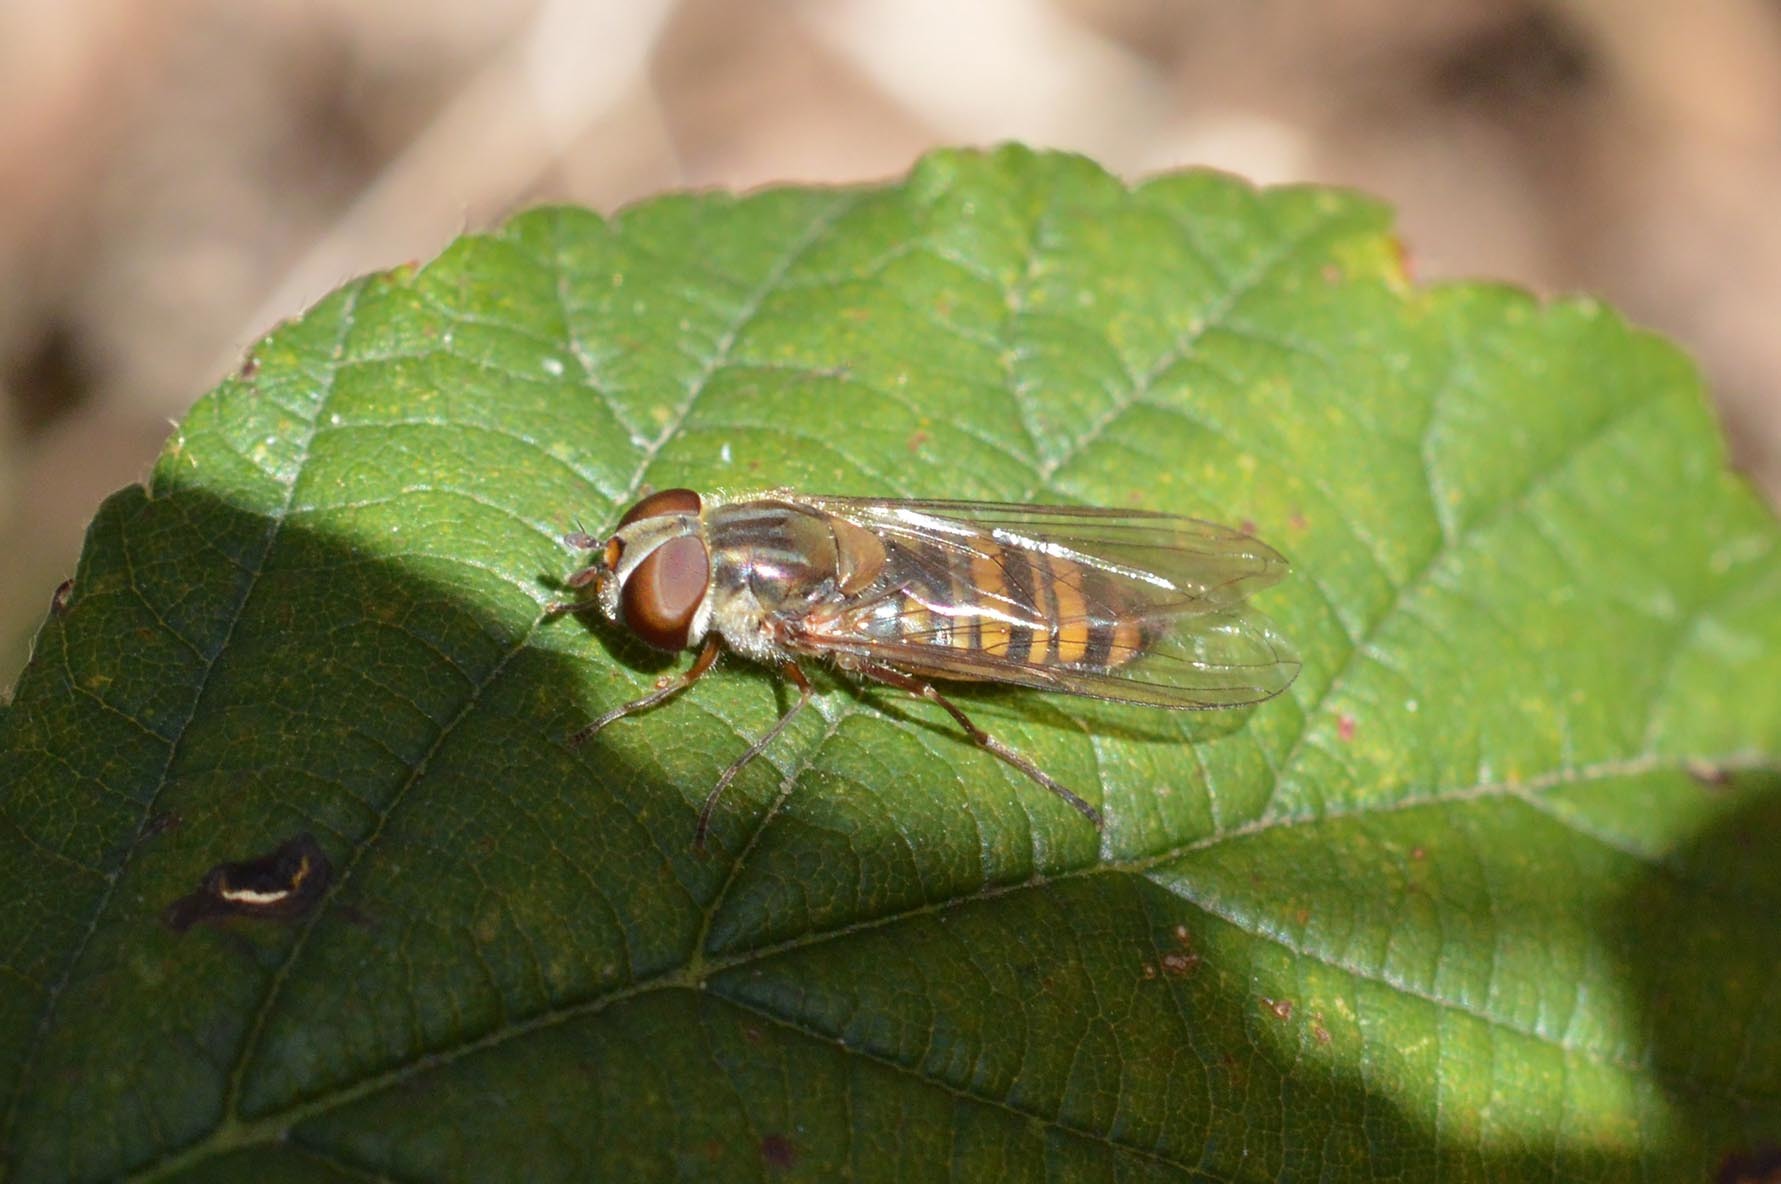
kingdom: Animalia
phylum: Arthropoda
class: Insecta
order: Diptera
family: Syrphidae
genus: Episyrphus
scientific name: Episyrphus balteatus
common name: Marmalade hoverfly
